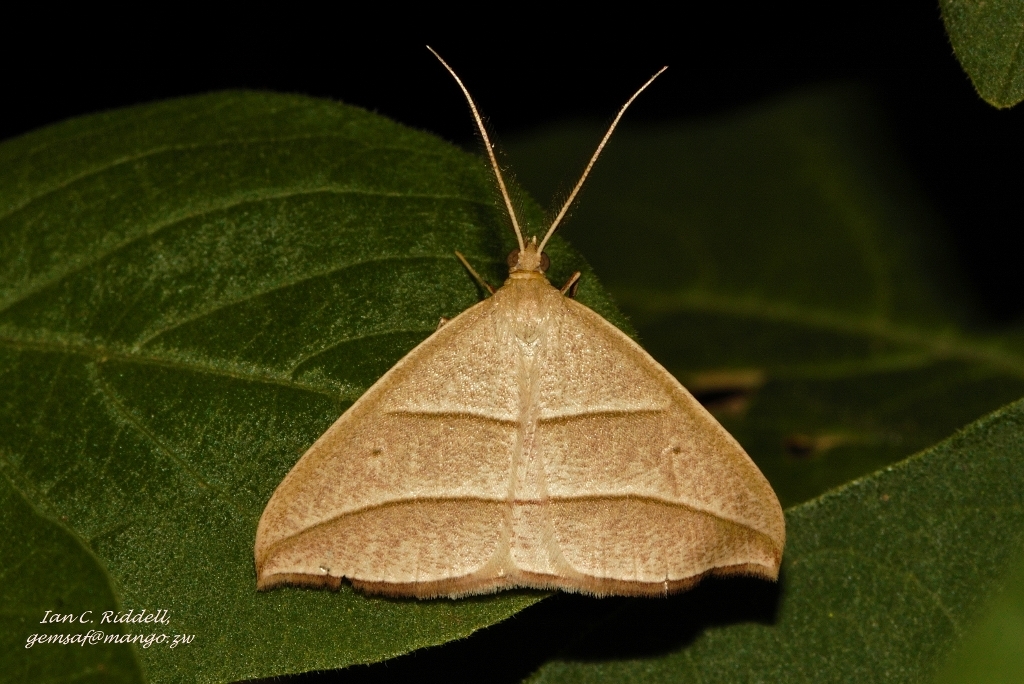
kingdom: Animalia
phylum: Arthropoda
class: Insecta
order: Lepidoptera
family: Geometridae
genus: Afrophyla
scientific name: Afrophyla vethi
